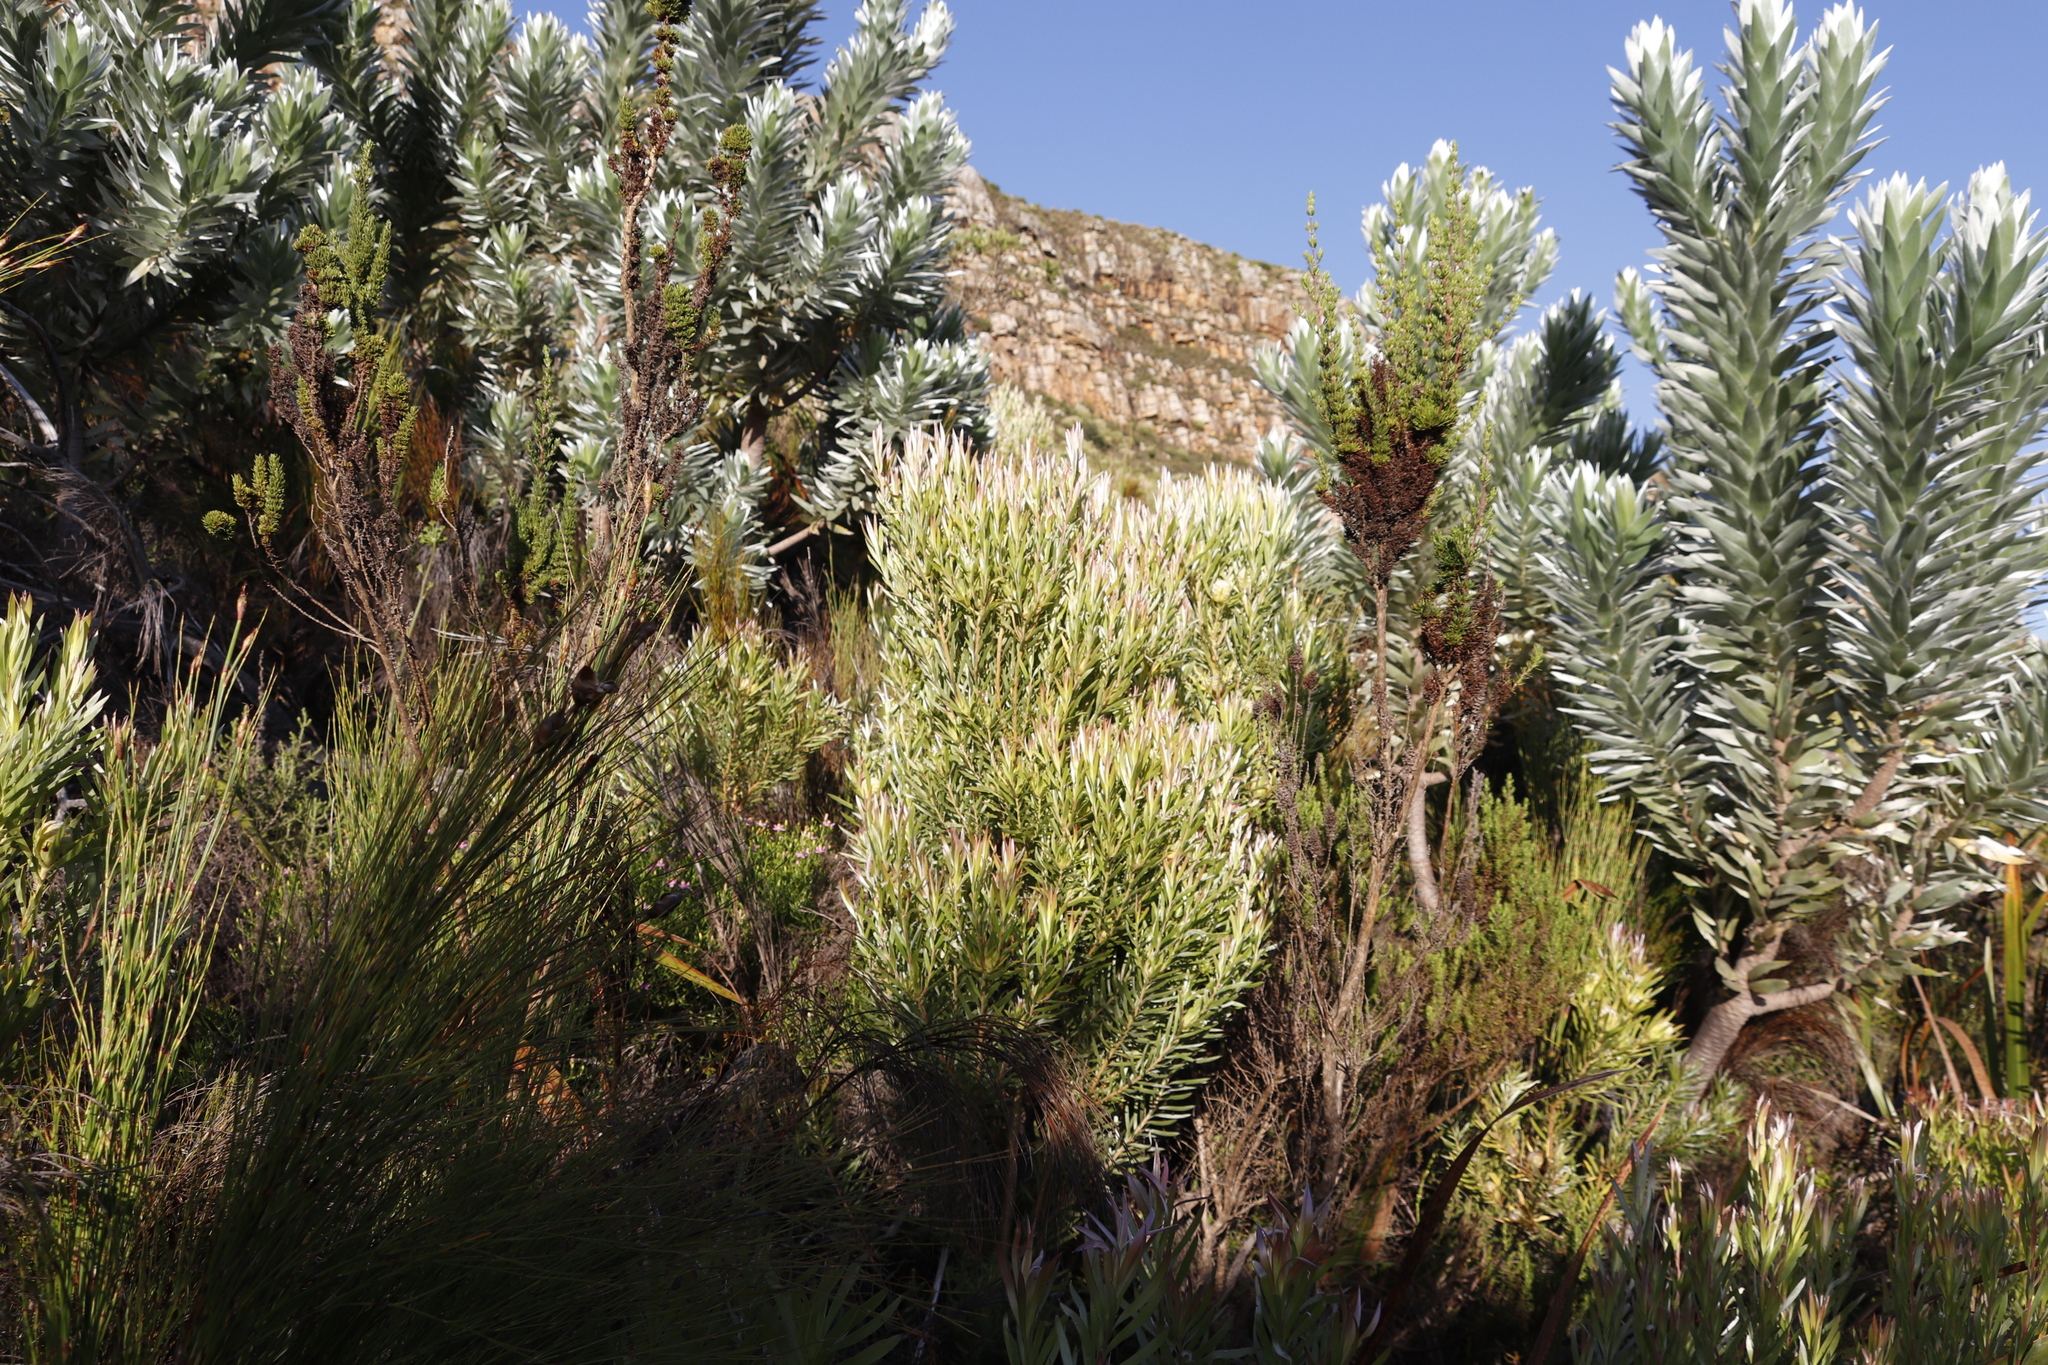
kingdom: Plantae
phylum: Tracheophyta
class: Magnoliopsida
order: Proteales
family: Proteaceae
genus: Leucadendron
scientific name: Leucadendron xanthoconus
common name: Sickle-leaf conebush
